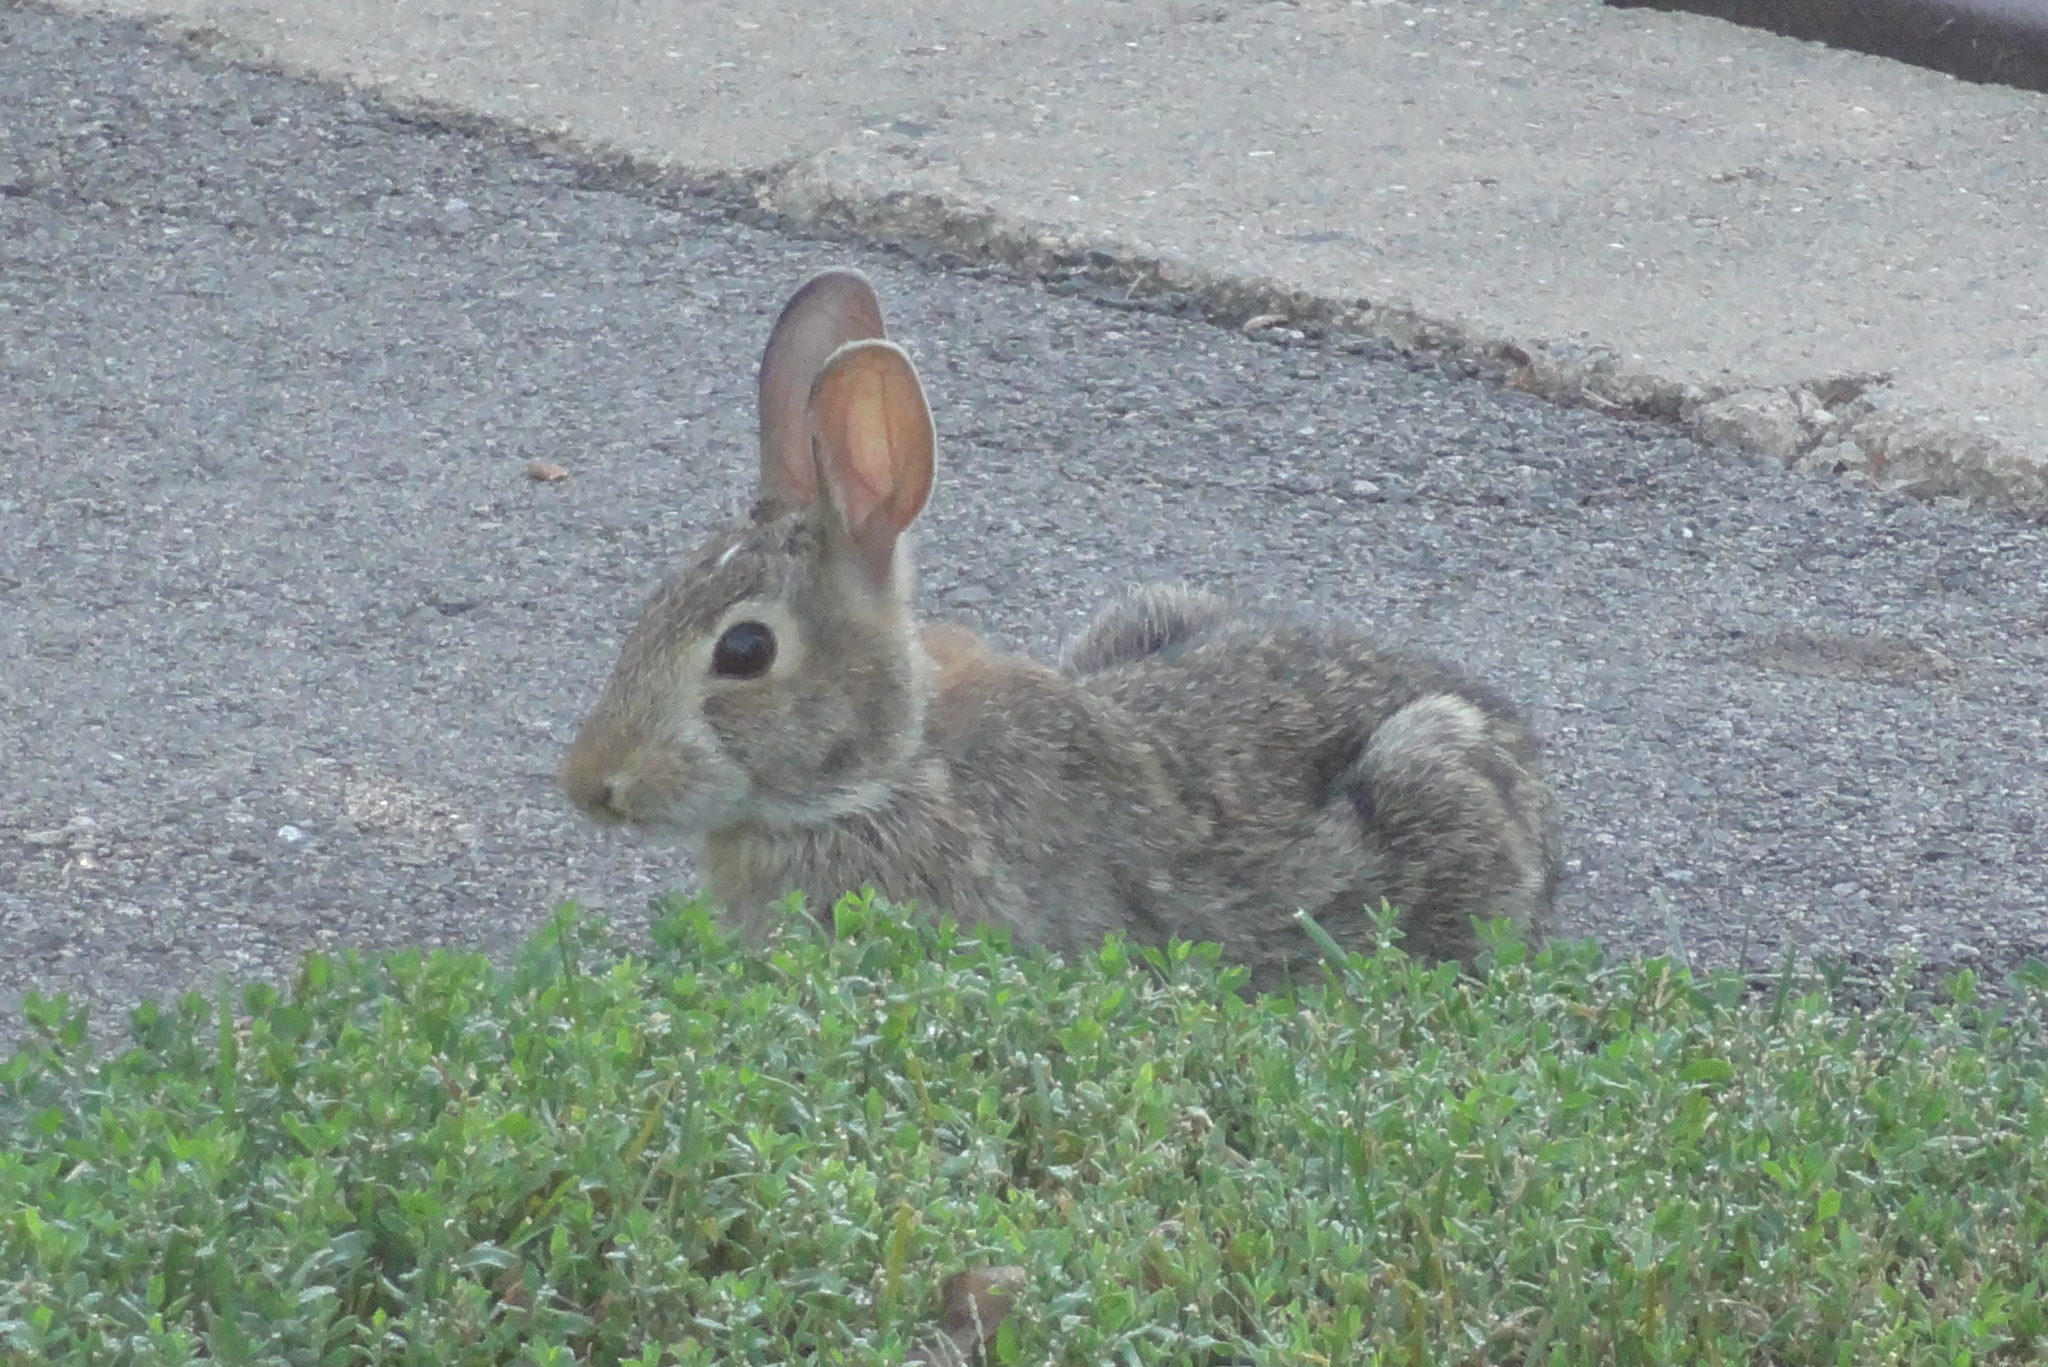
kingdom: Animalia
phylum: Chordata
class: Mammalia
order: Lagomorpha
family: Leporidae
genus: Sylvilagus
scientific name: Sylvilagus floridanus
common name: Eastern cottontail
